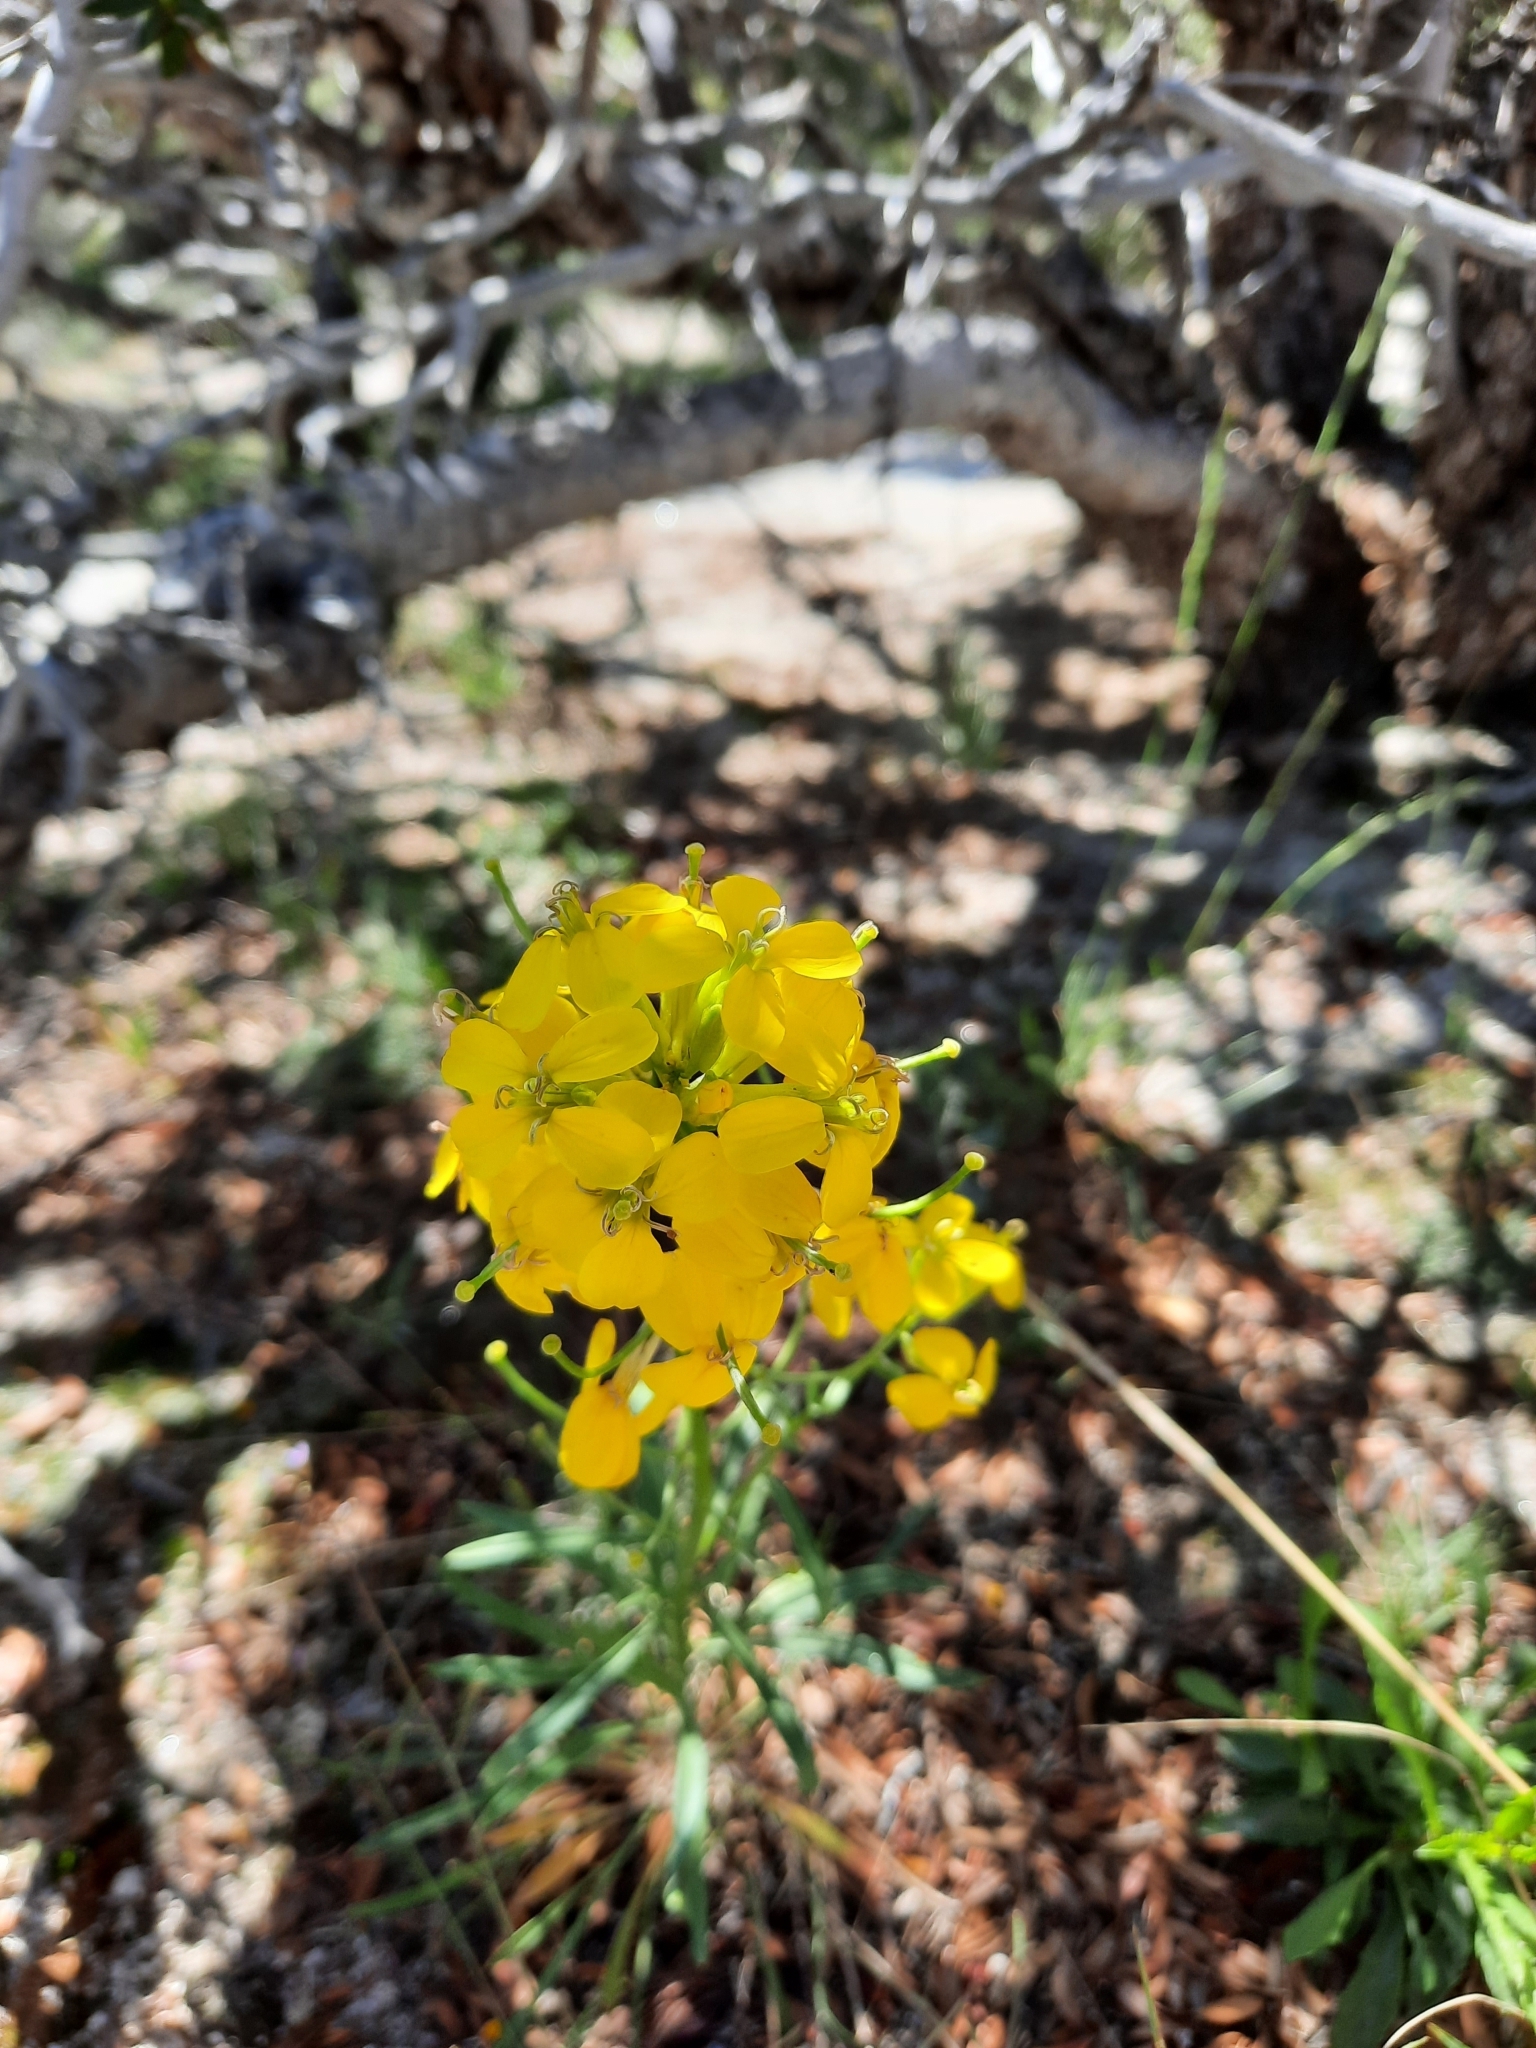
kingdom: Plantae
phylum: Tracheophyta
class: Magnoliopsida
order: Brassicales
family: Brassicaceae
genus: Erysimum
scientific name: Erysimum capitatum
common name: Western wallflower
